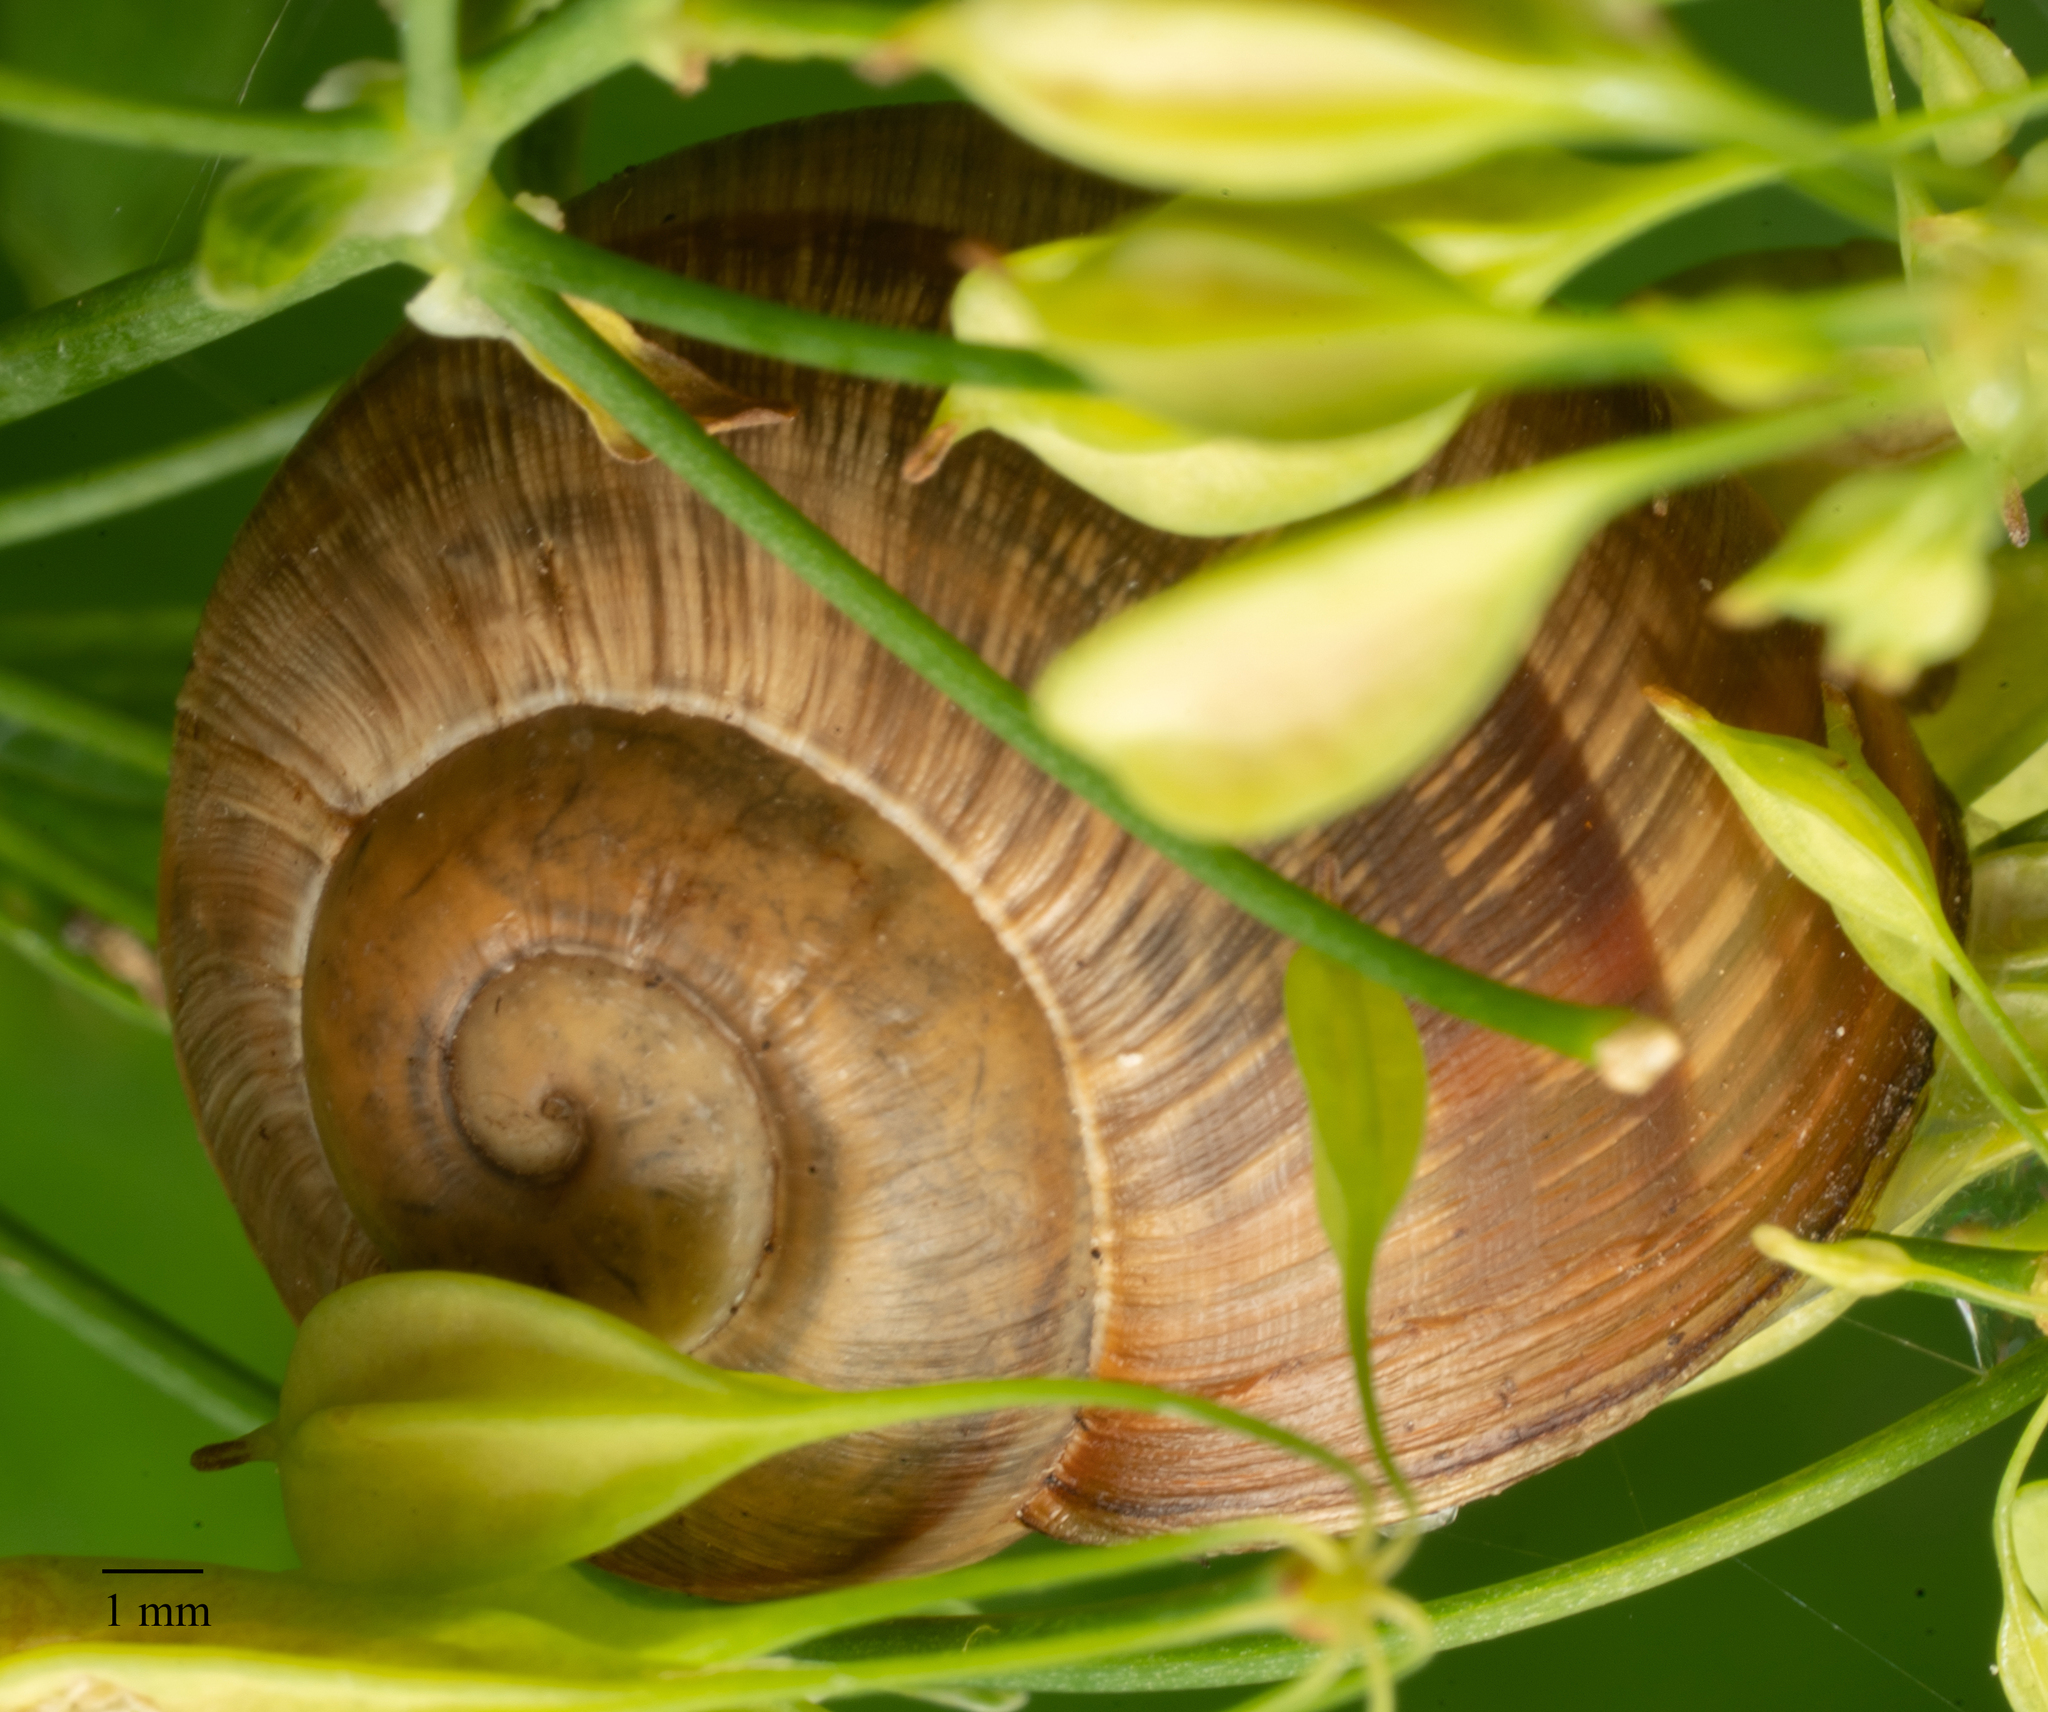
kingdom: Animalia
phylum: Mollusca
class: Gastropoda
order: Stylommatophora
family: Helicidae
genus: Helix
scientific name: Helix pomatia
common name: Roman snail
